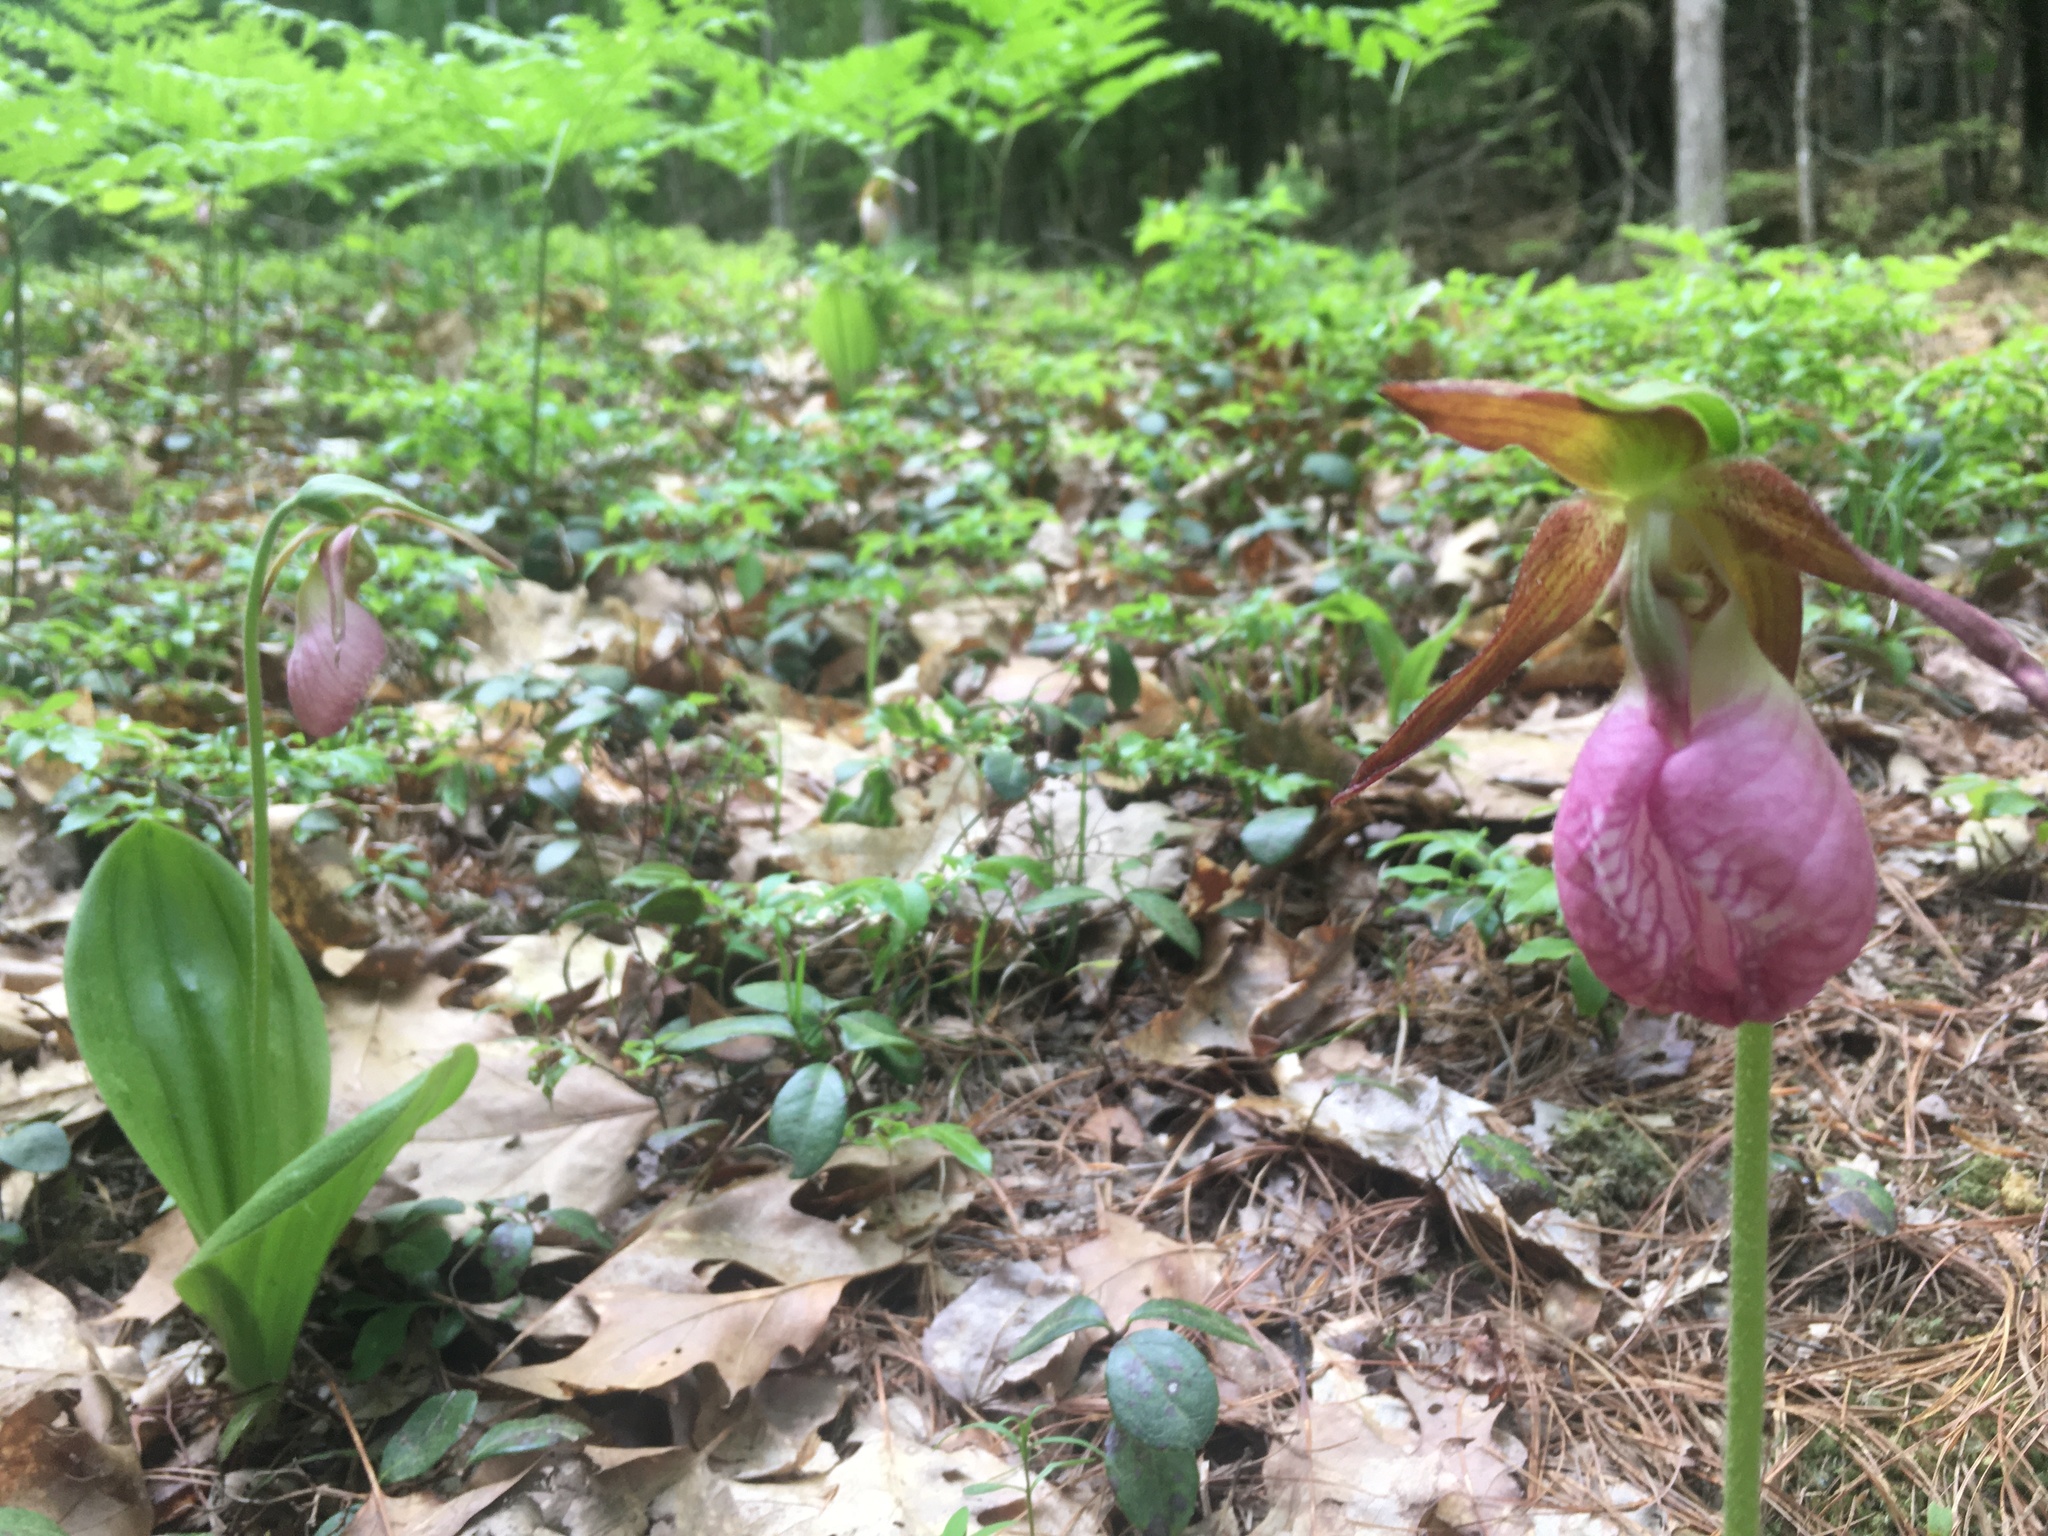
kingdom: Plantae
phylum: Tracheophyta
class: Liliopsida
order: Asparagales
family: Orchidaceae
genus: Cypripedium
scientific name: Cypripedium acaule
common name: Pink lady's-slipper
